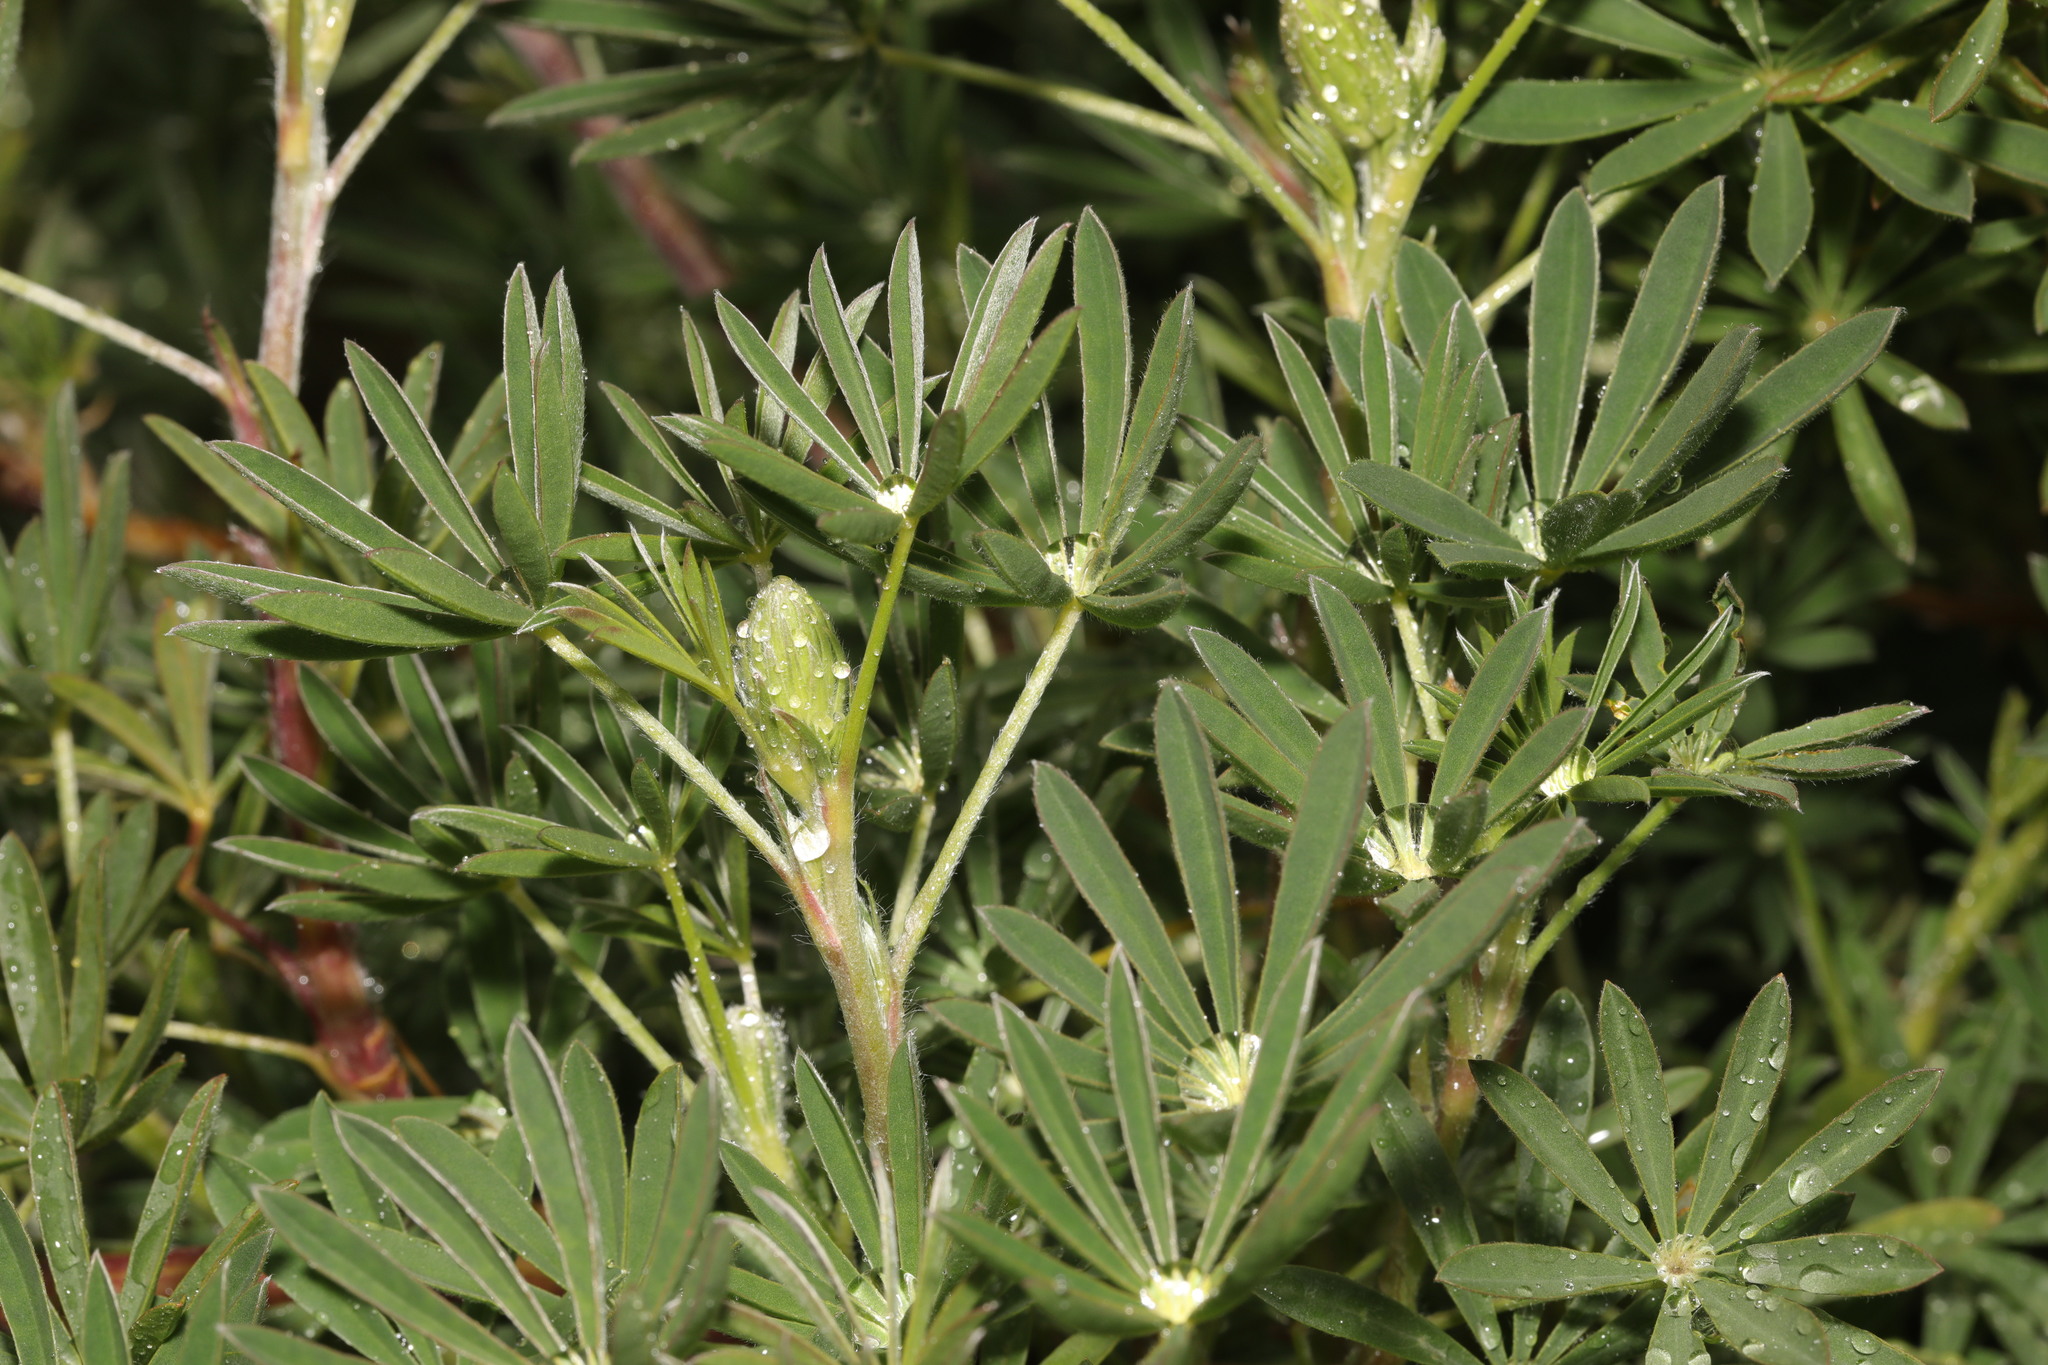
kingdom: Plantae
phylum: Tracheophyta
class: Magnoliopsida
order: Fabales
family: Fabaceae
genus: Lupinus
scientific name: Lupinus arboreus
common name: Yellow bush lupine
